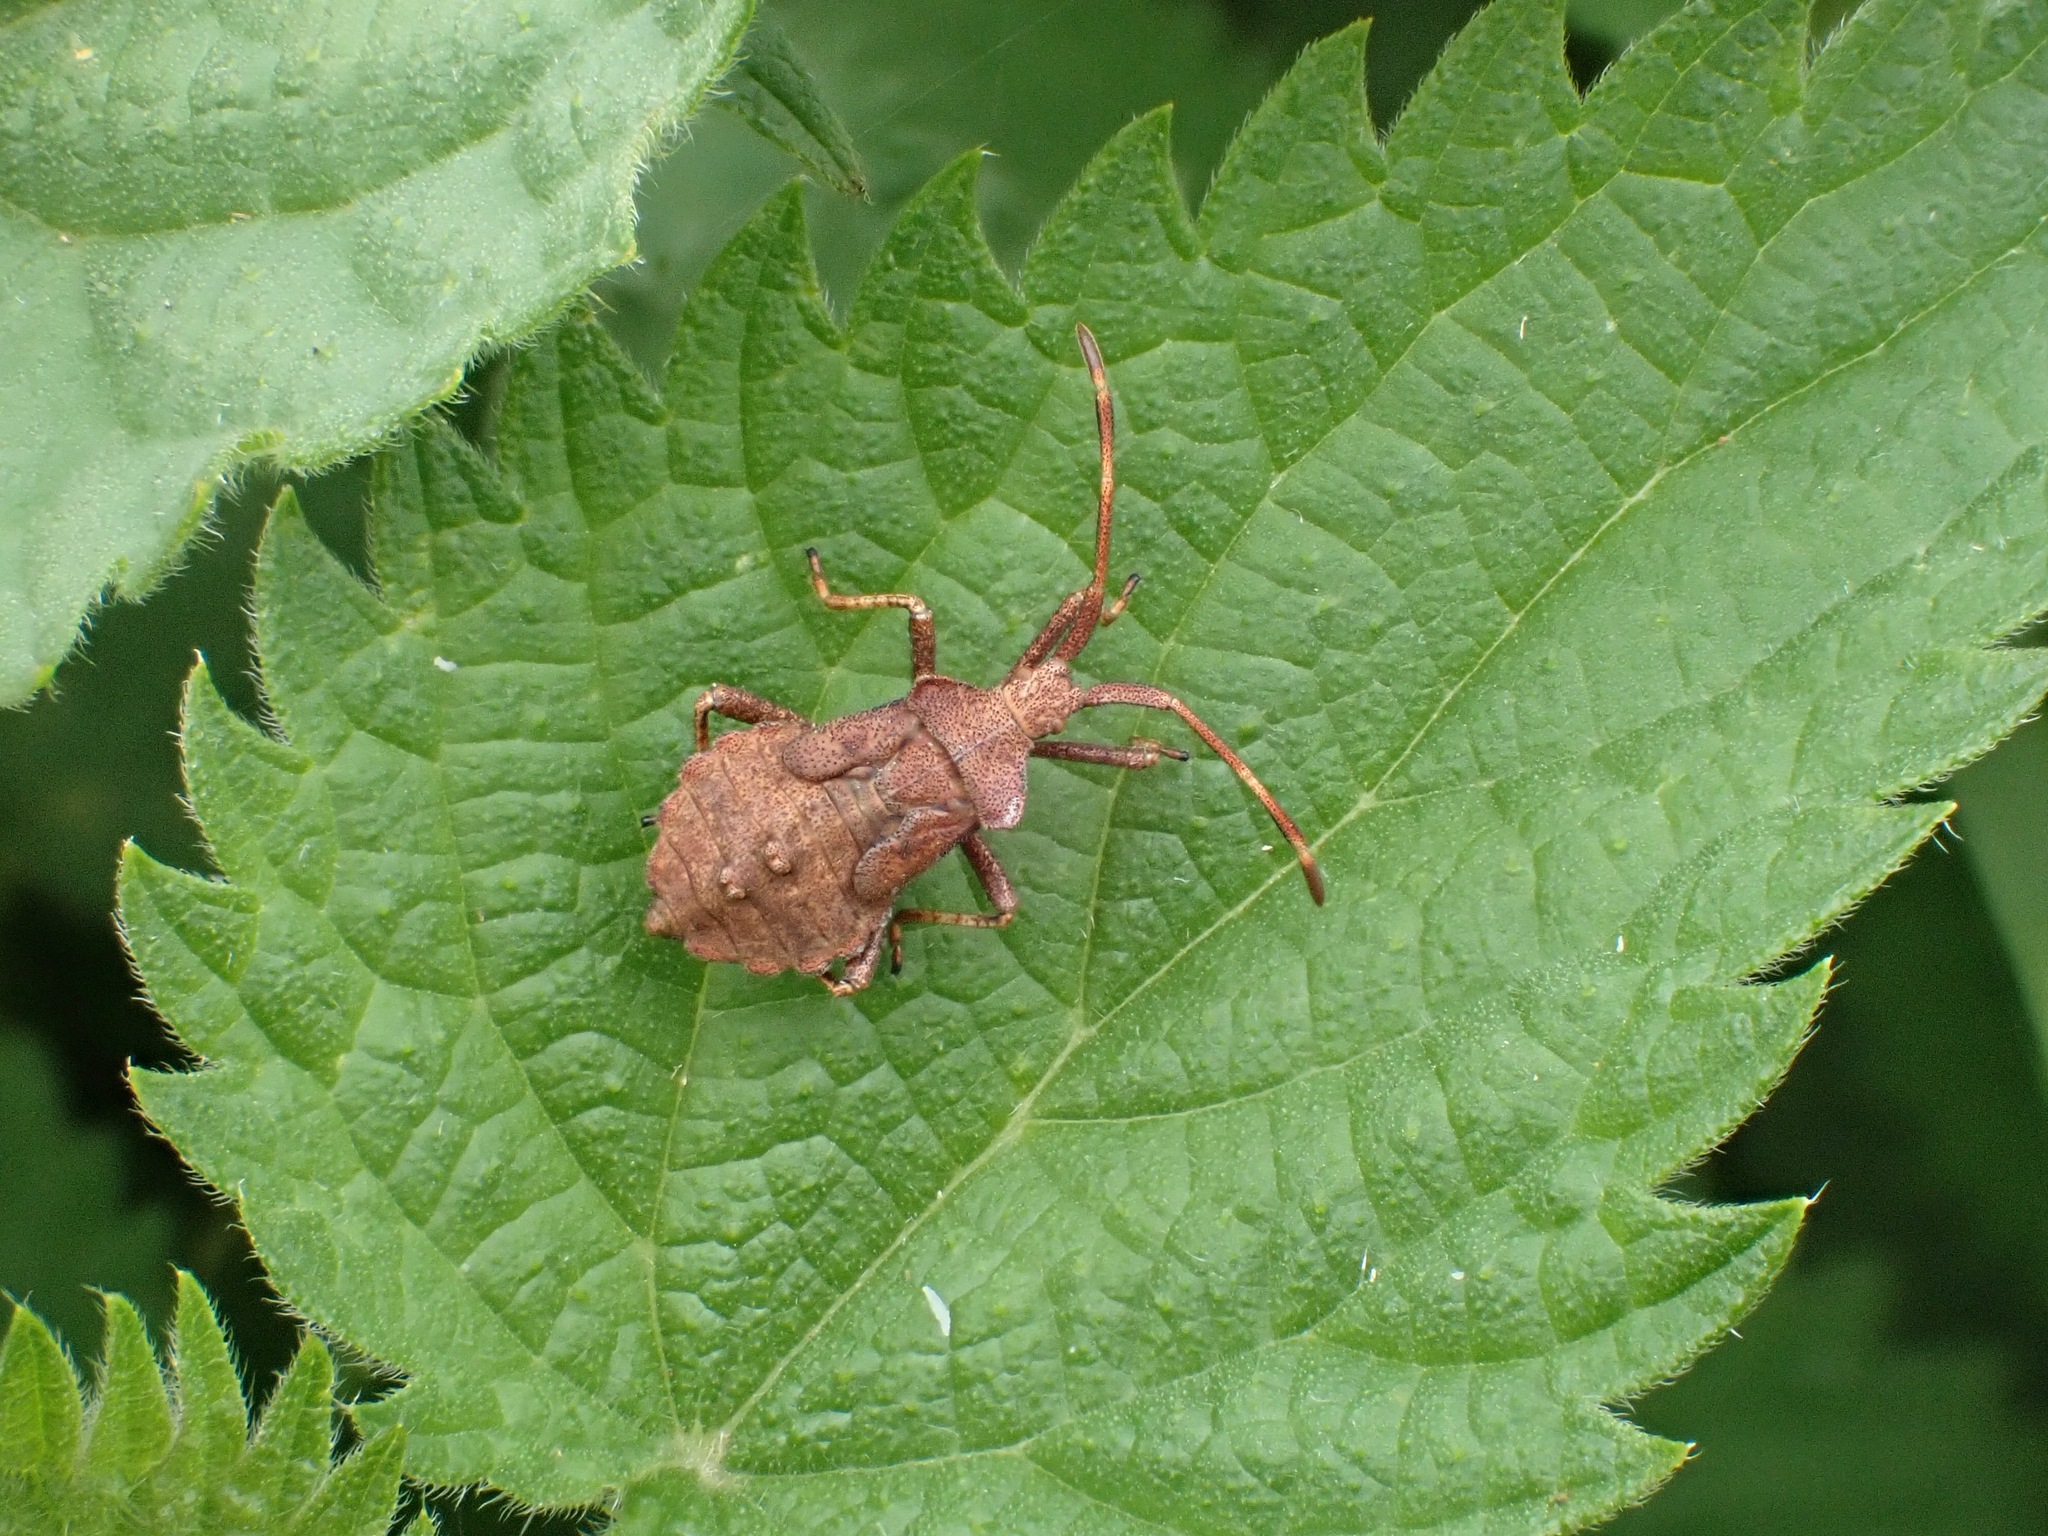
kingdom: Animalia
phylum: Arthropoda
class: Insecta
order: Hemiptera
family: Coreidae
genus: Coreus
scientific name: Coreus marginatus
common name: Dock bug
